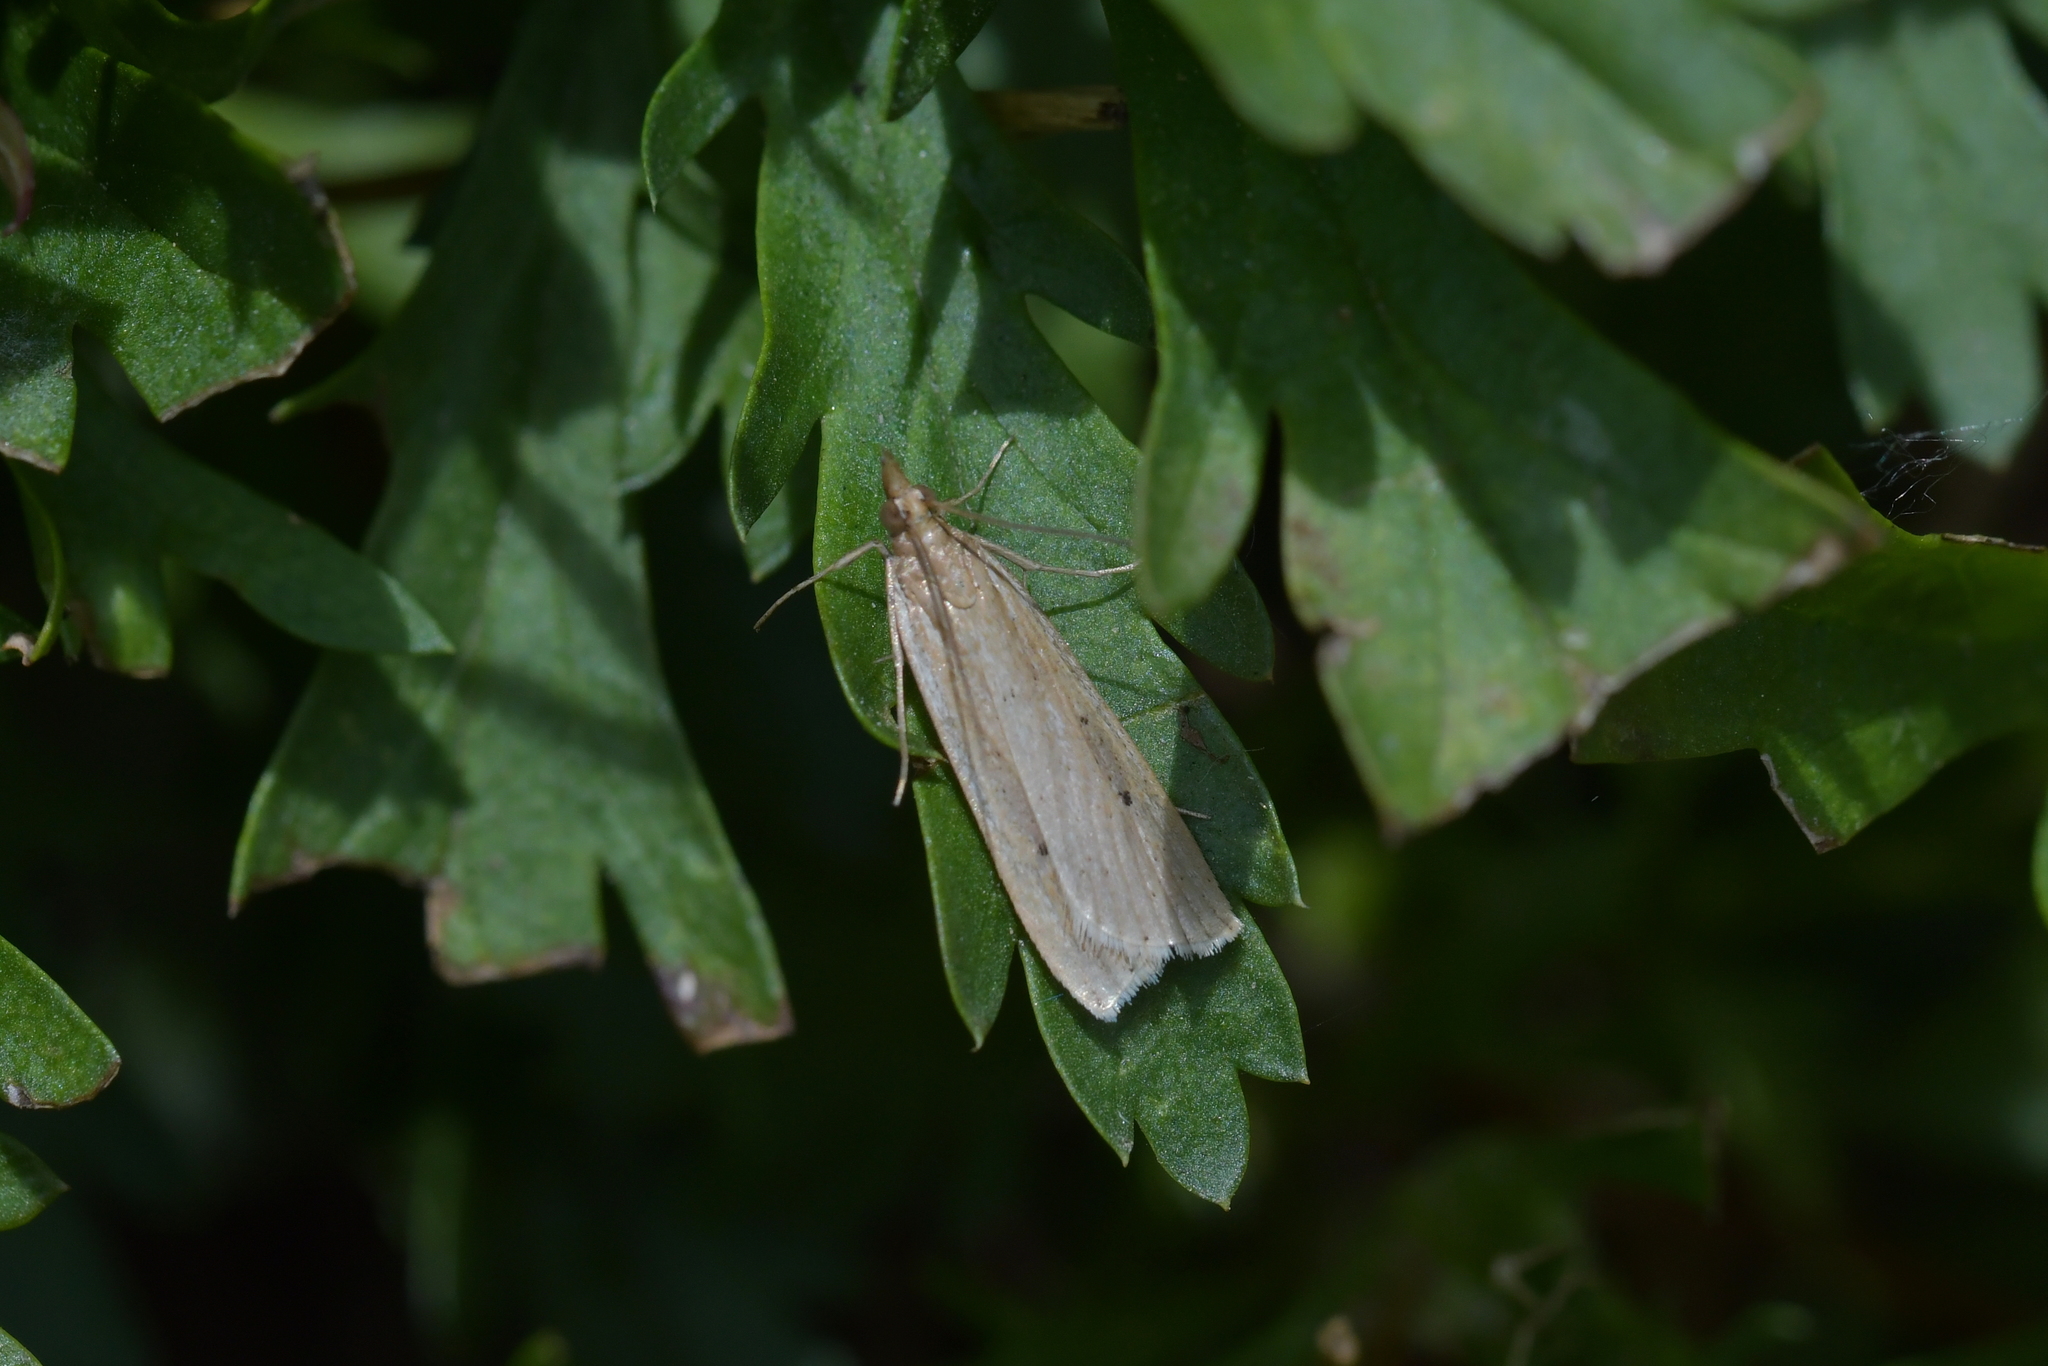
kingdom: Animalia
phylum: Arthropoda
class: Insecta
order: Lepidoptera
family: Crambidae
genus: Eudonia
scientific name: Eudonia sabulosella
